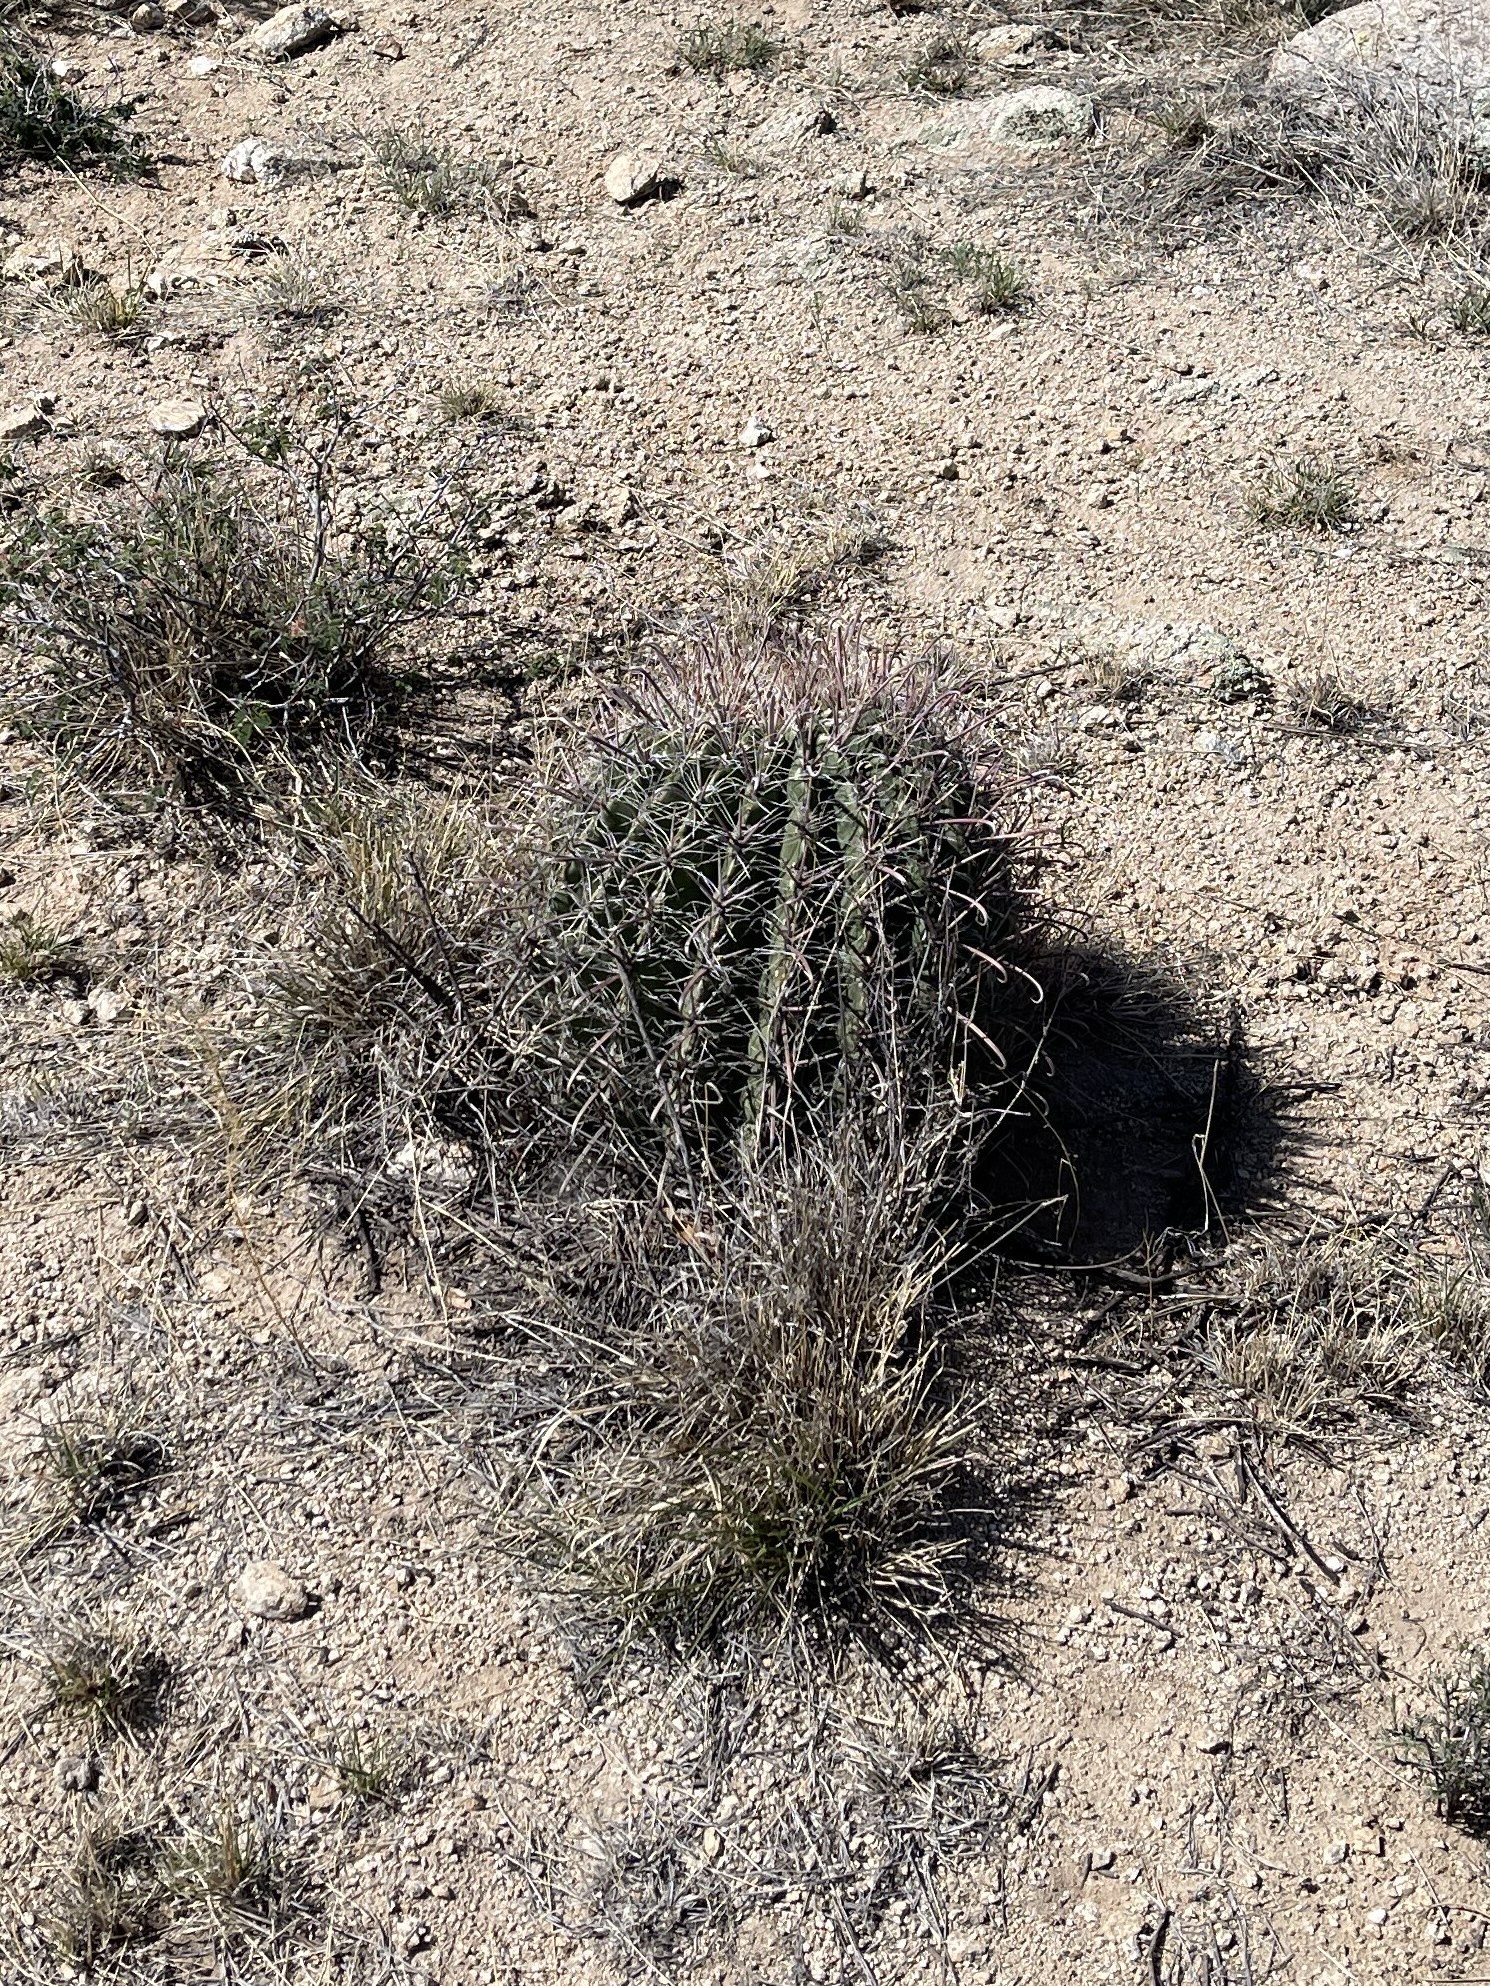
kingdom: Plantae
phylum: Tracheophyta
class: Magnoliopsida
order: Caryophyllales
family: Cactaceae
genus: Ferocactus
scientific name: Ferocactus wislizeni
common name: Candy barrel cactus
